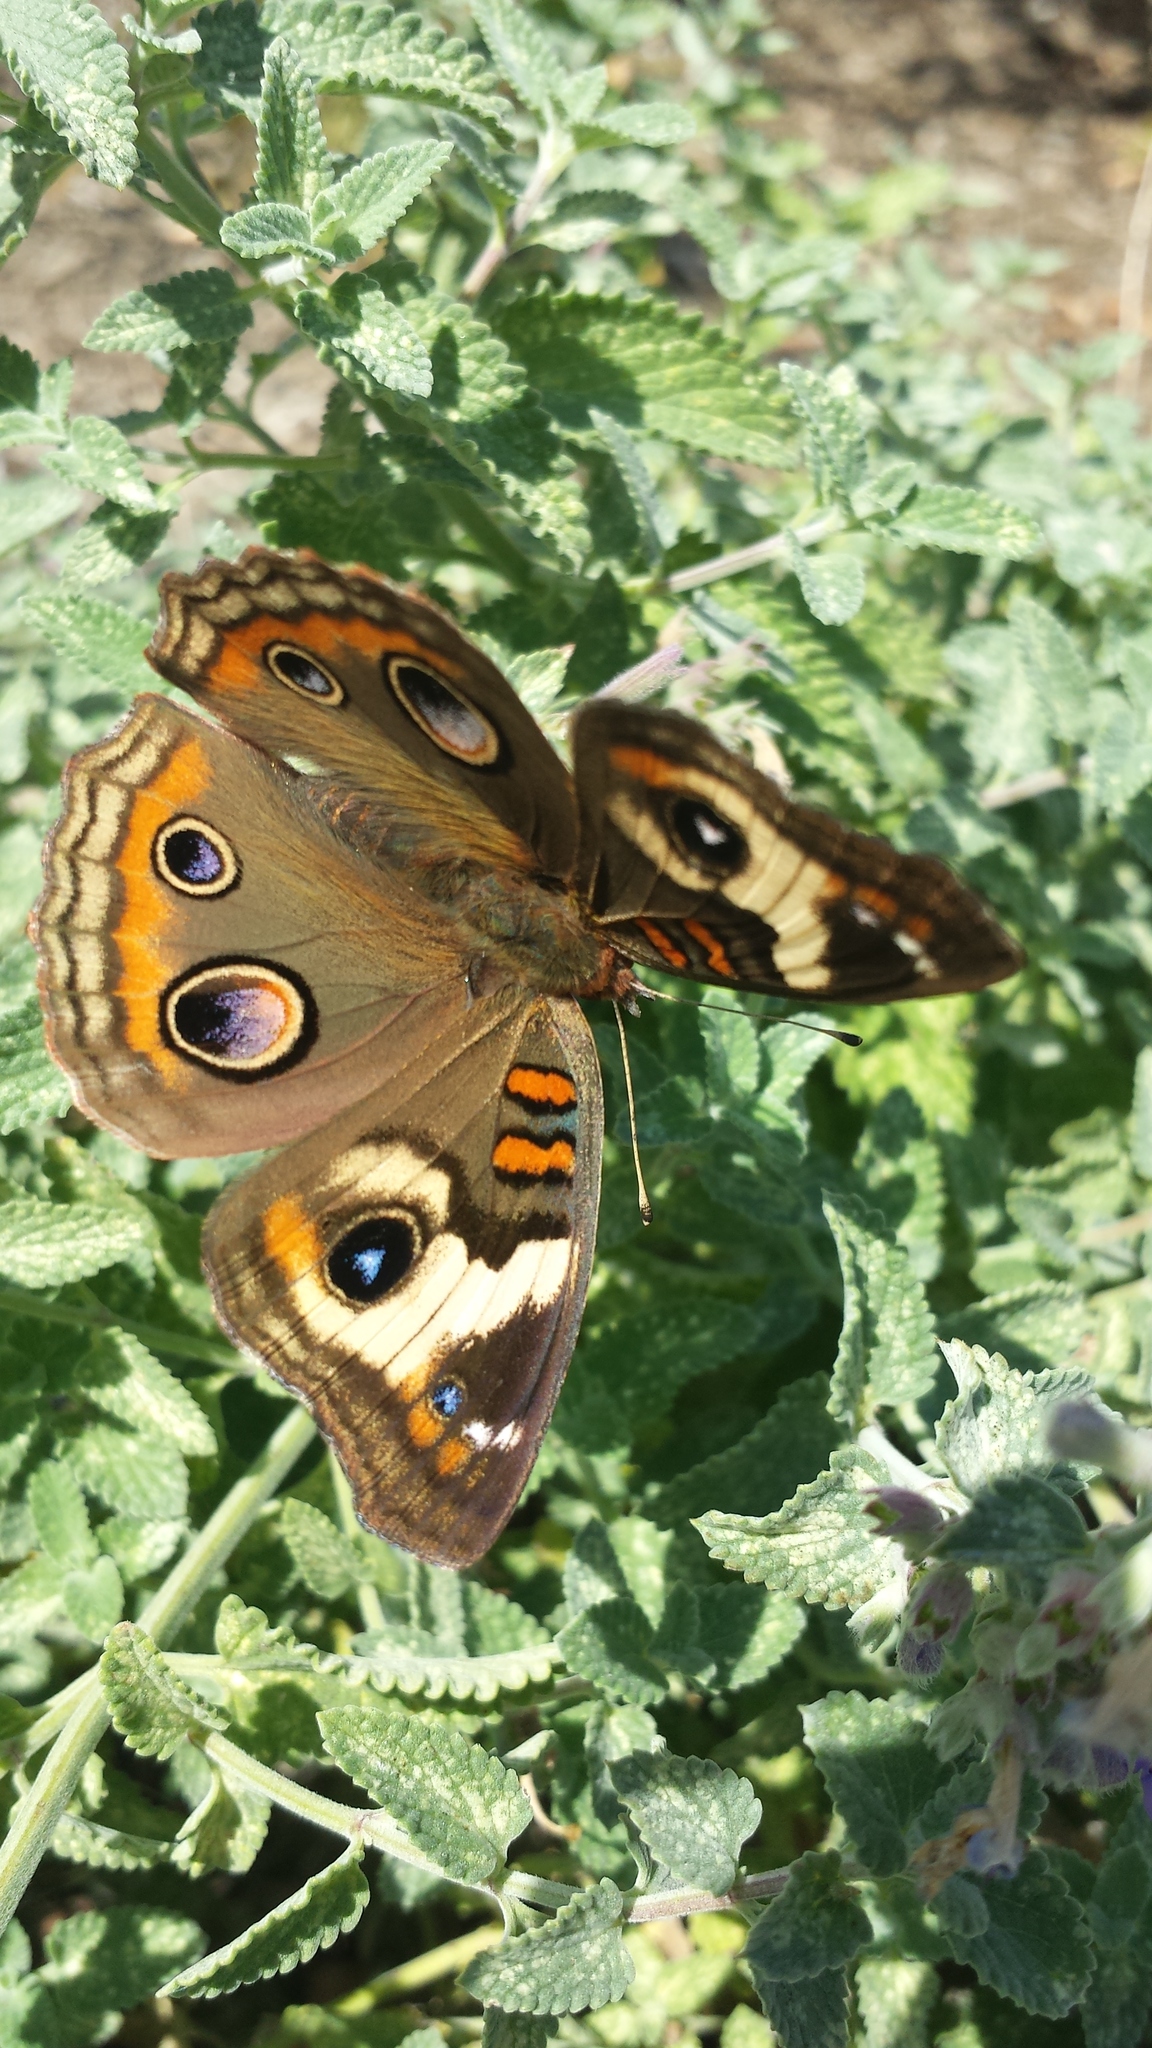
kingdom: Animalia
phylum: Arthropoda
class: Insecta
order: Lepidoptera
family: Nymphalidae
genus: Junonia
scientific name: Junonia coenia
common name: Common buckeye
